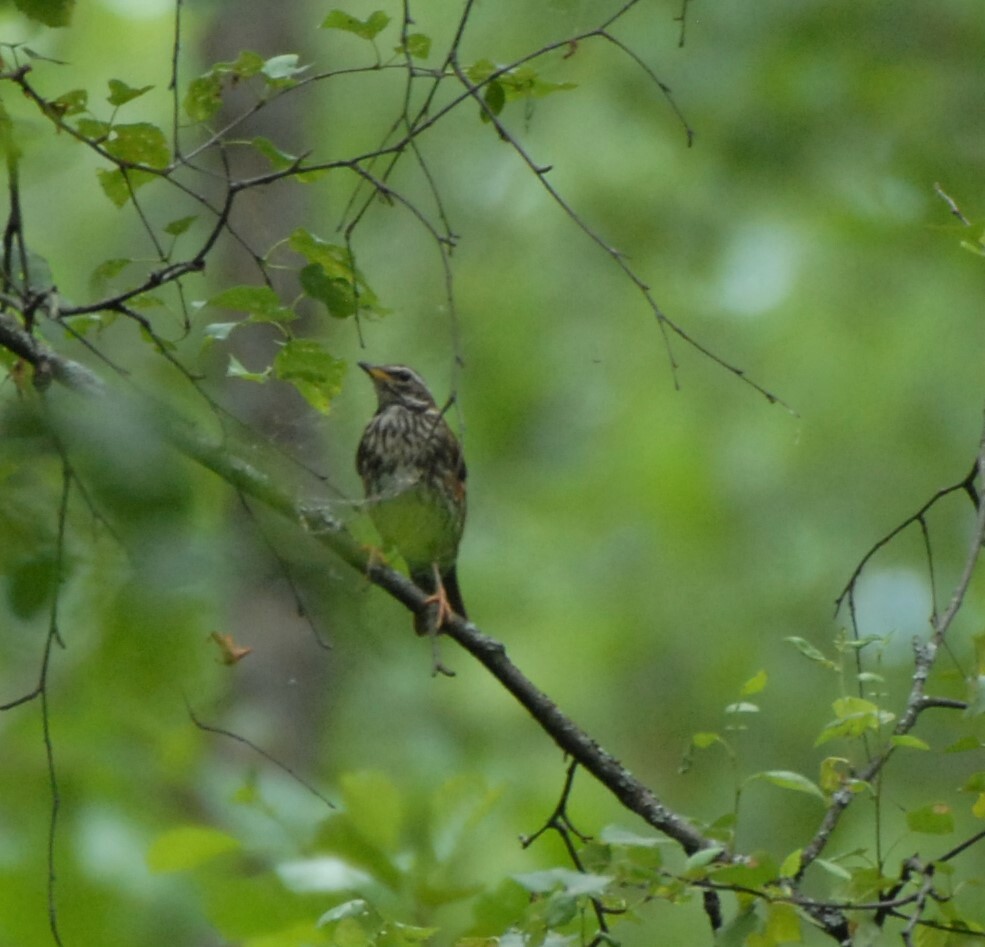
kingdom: Animalia
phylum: Chordata
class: Aves
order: Passeriformes
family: Turdidae
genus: Turdus
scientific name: Turdus iliacus
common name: Redwing
